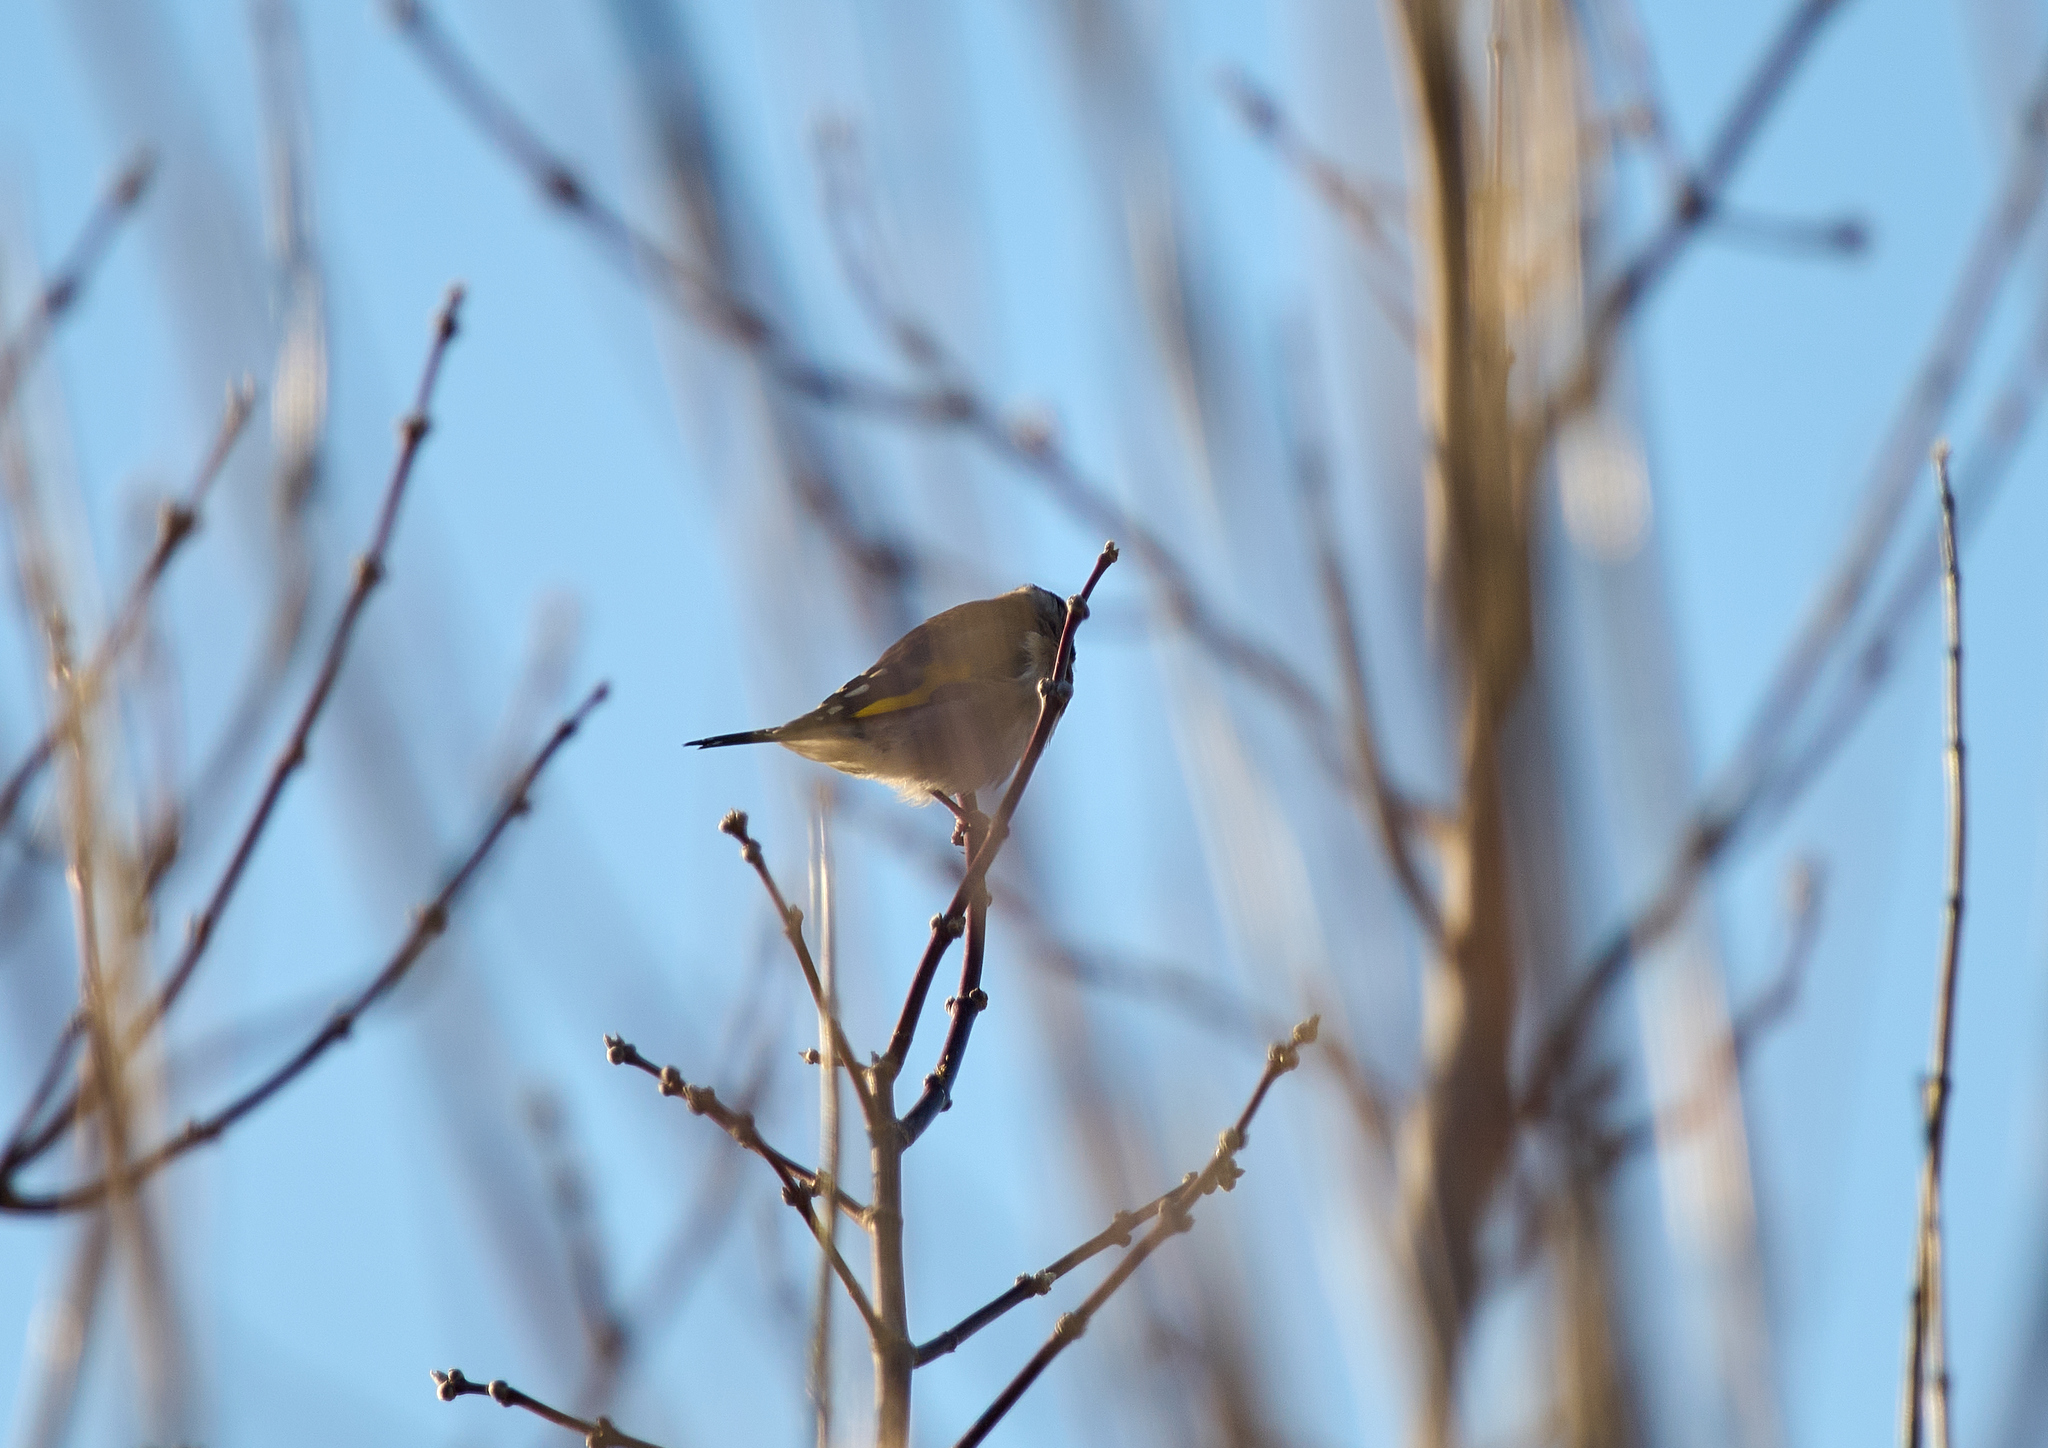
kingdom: Animalia
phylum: Chordata
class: Aves
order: Passeriformes
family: Fringillidae
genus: Carduelis
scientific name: Carduelis carduelis
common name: European goldfinch
